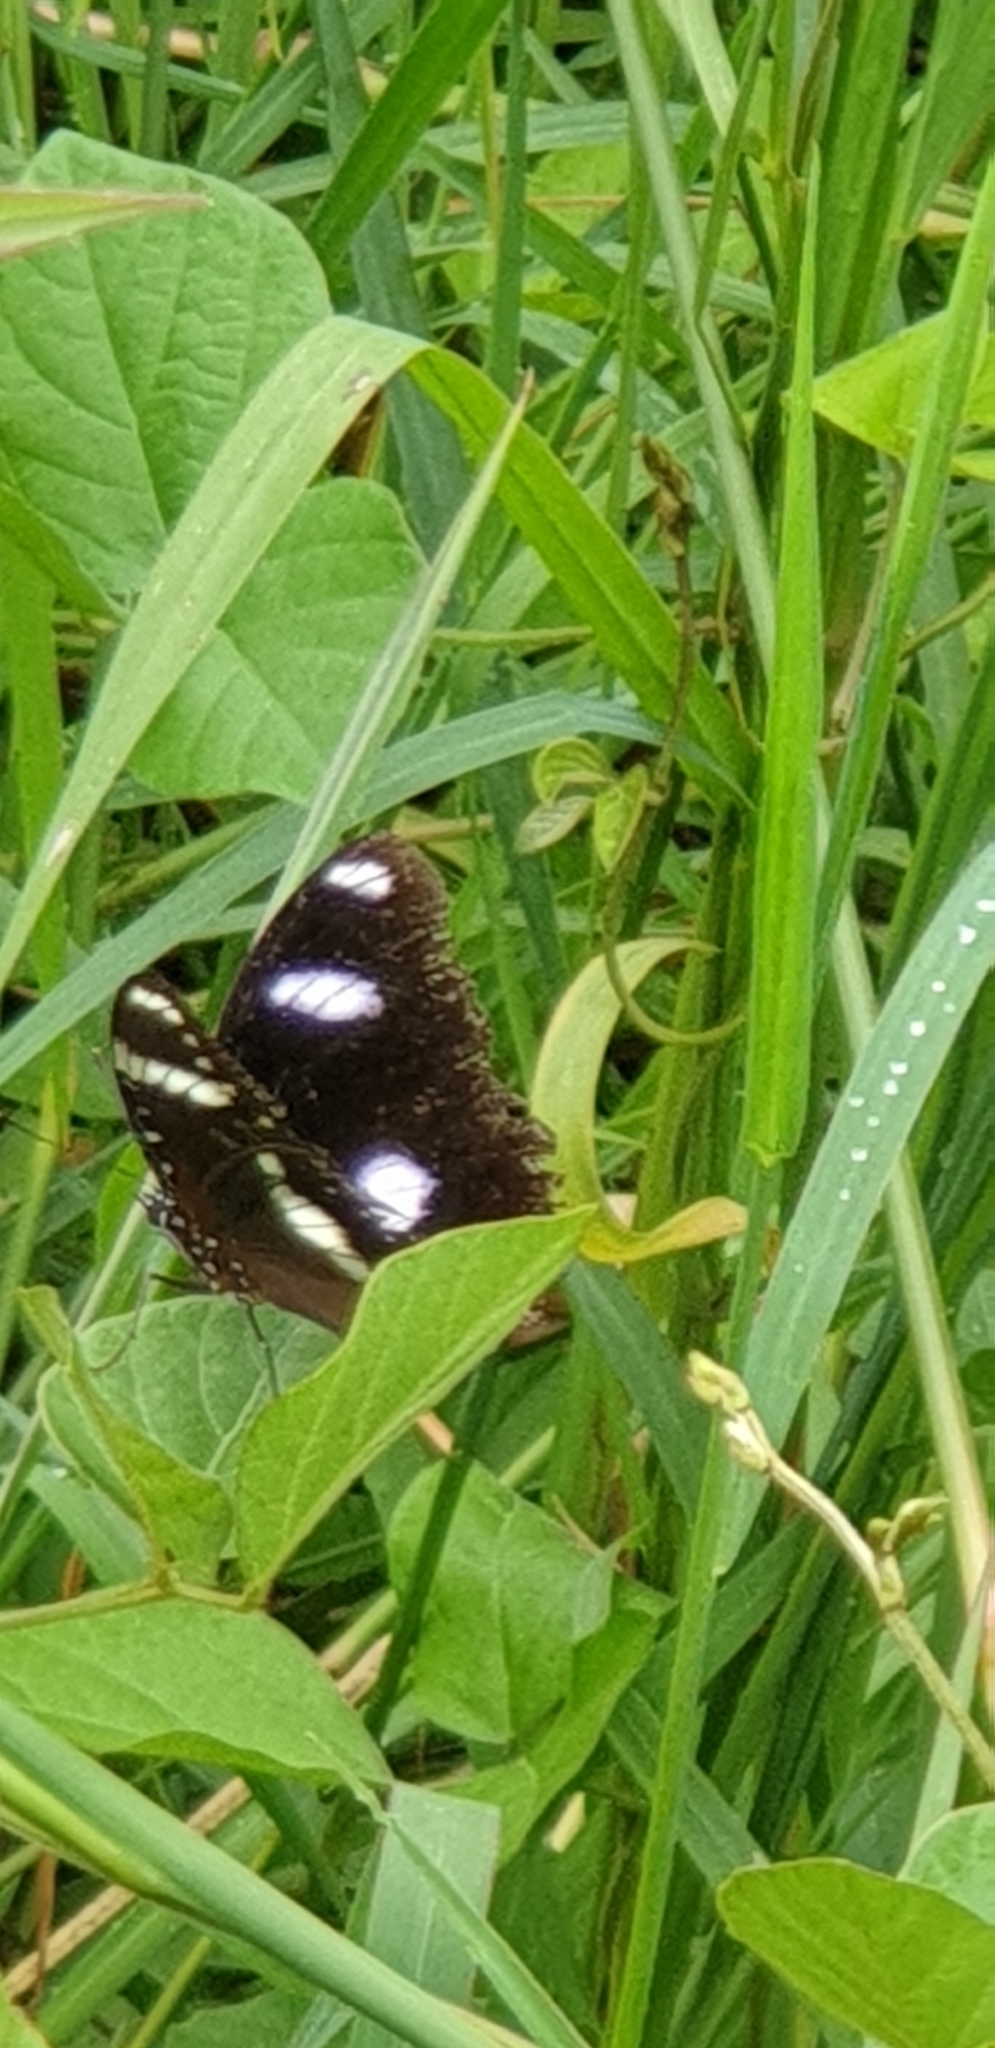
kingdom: Animalia
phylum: Arthropoda
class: Insecta
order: Lepidoptera
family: Nymphalidae
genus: Hypolimnas
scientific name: Hypolimnas bolina
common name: Great eggfly
